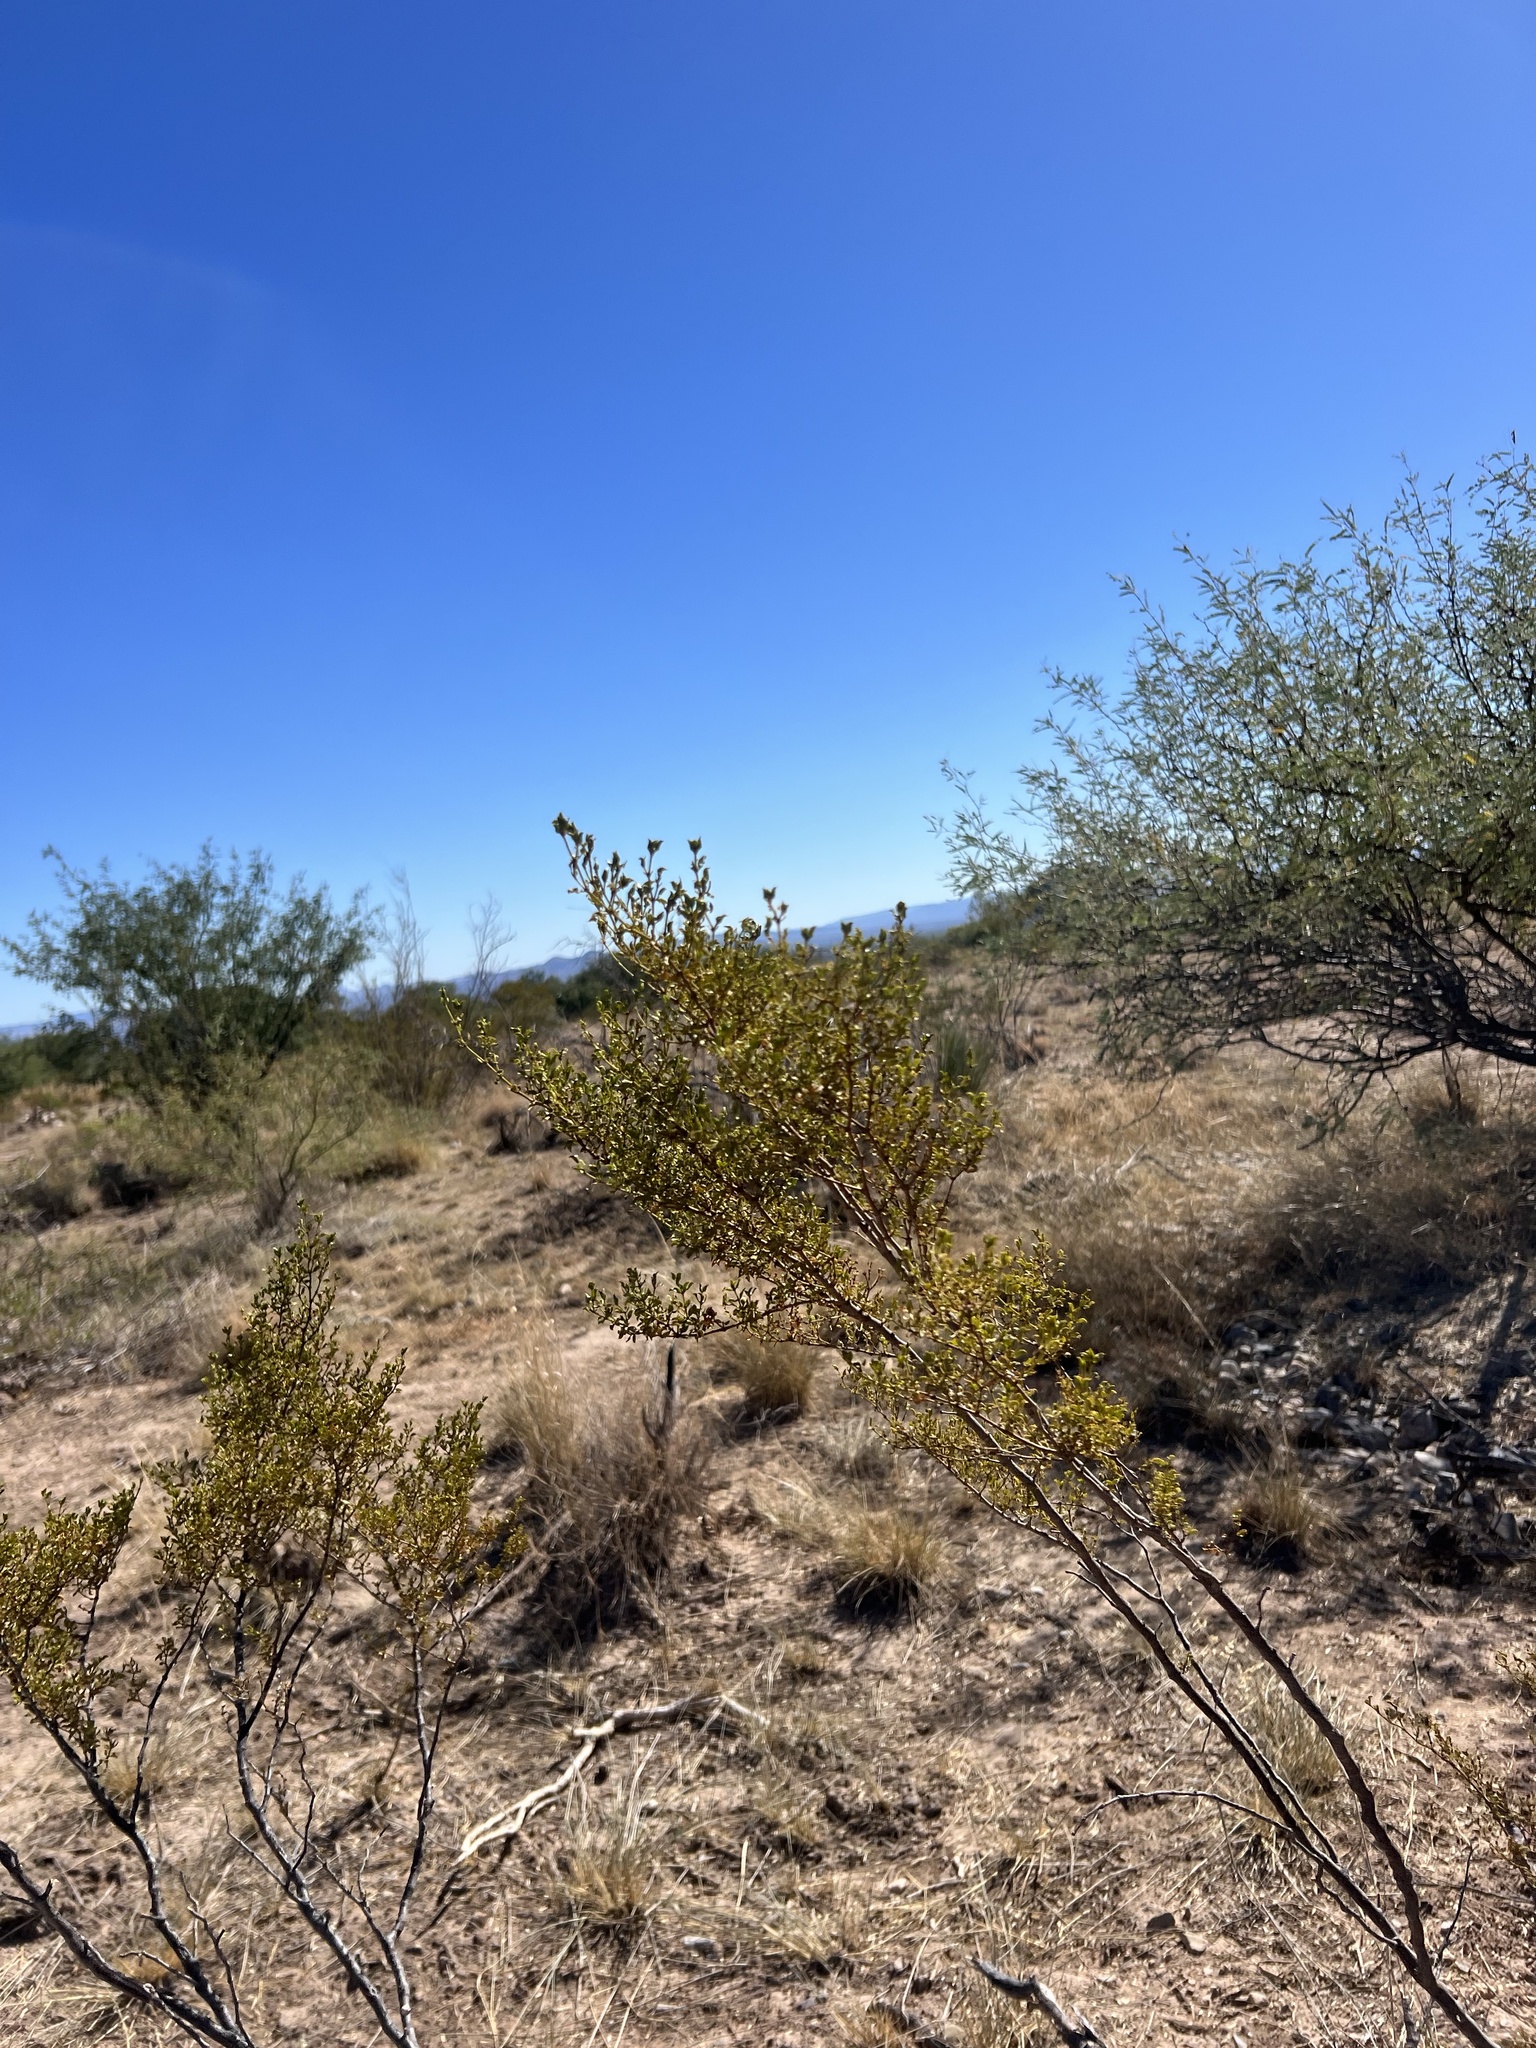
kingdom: Plantae
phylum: Tracheophyta
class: Magnoliopsida
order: Zygophyllales
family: Zygophyllaceae
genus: Larrea
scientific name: Larrea tridentata
